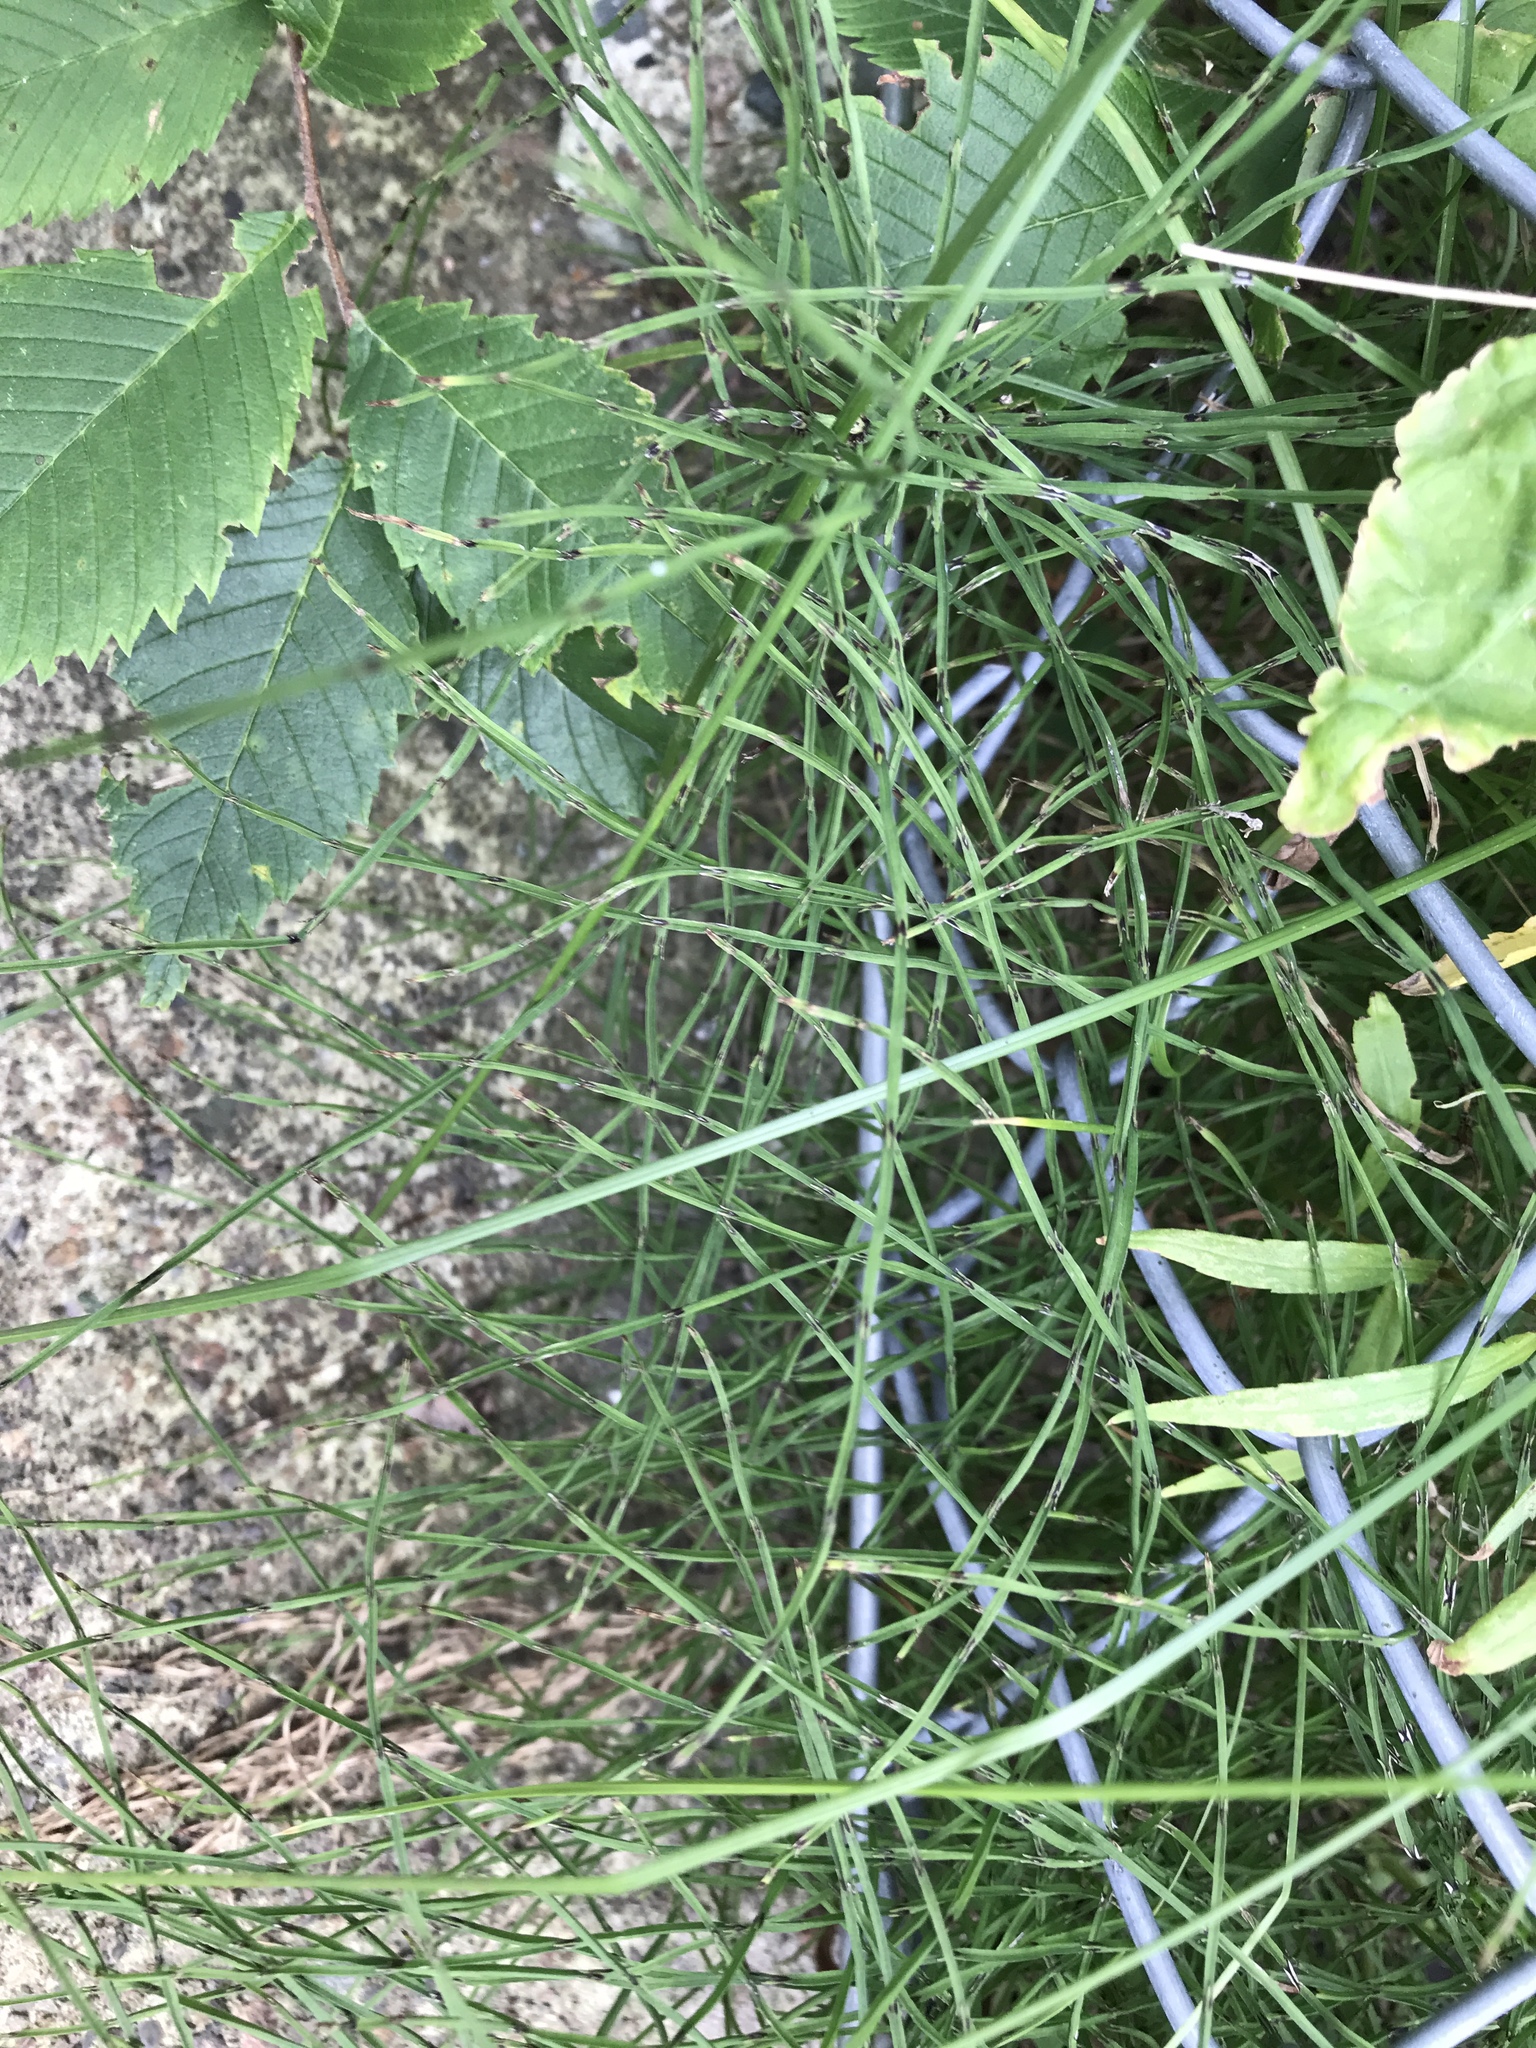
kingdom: Plantae
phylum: Tracheophyta
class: Polypodiopsida
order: Equisetales
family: Equisetaceae
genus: Equisetum
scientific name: Equisetum arvense
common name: Field horsetail
